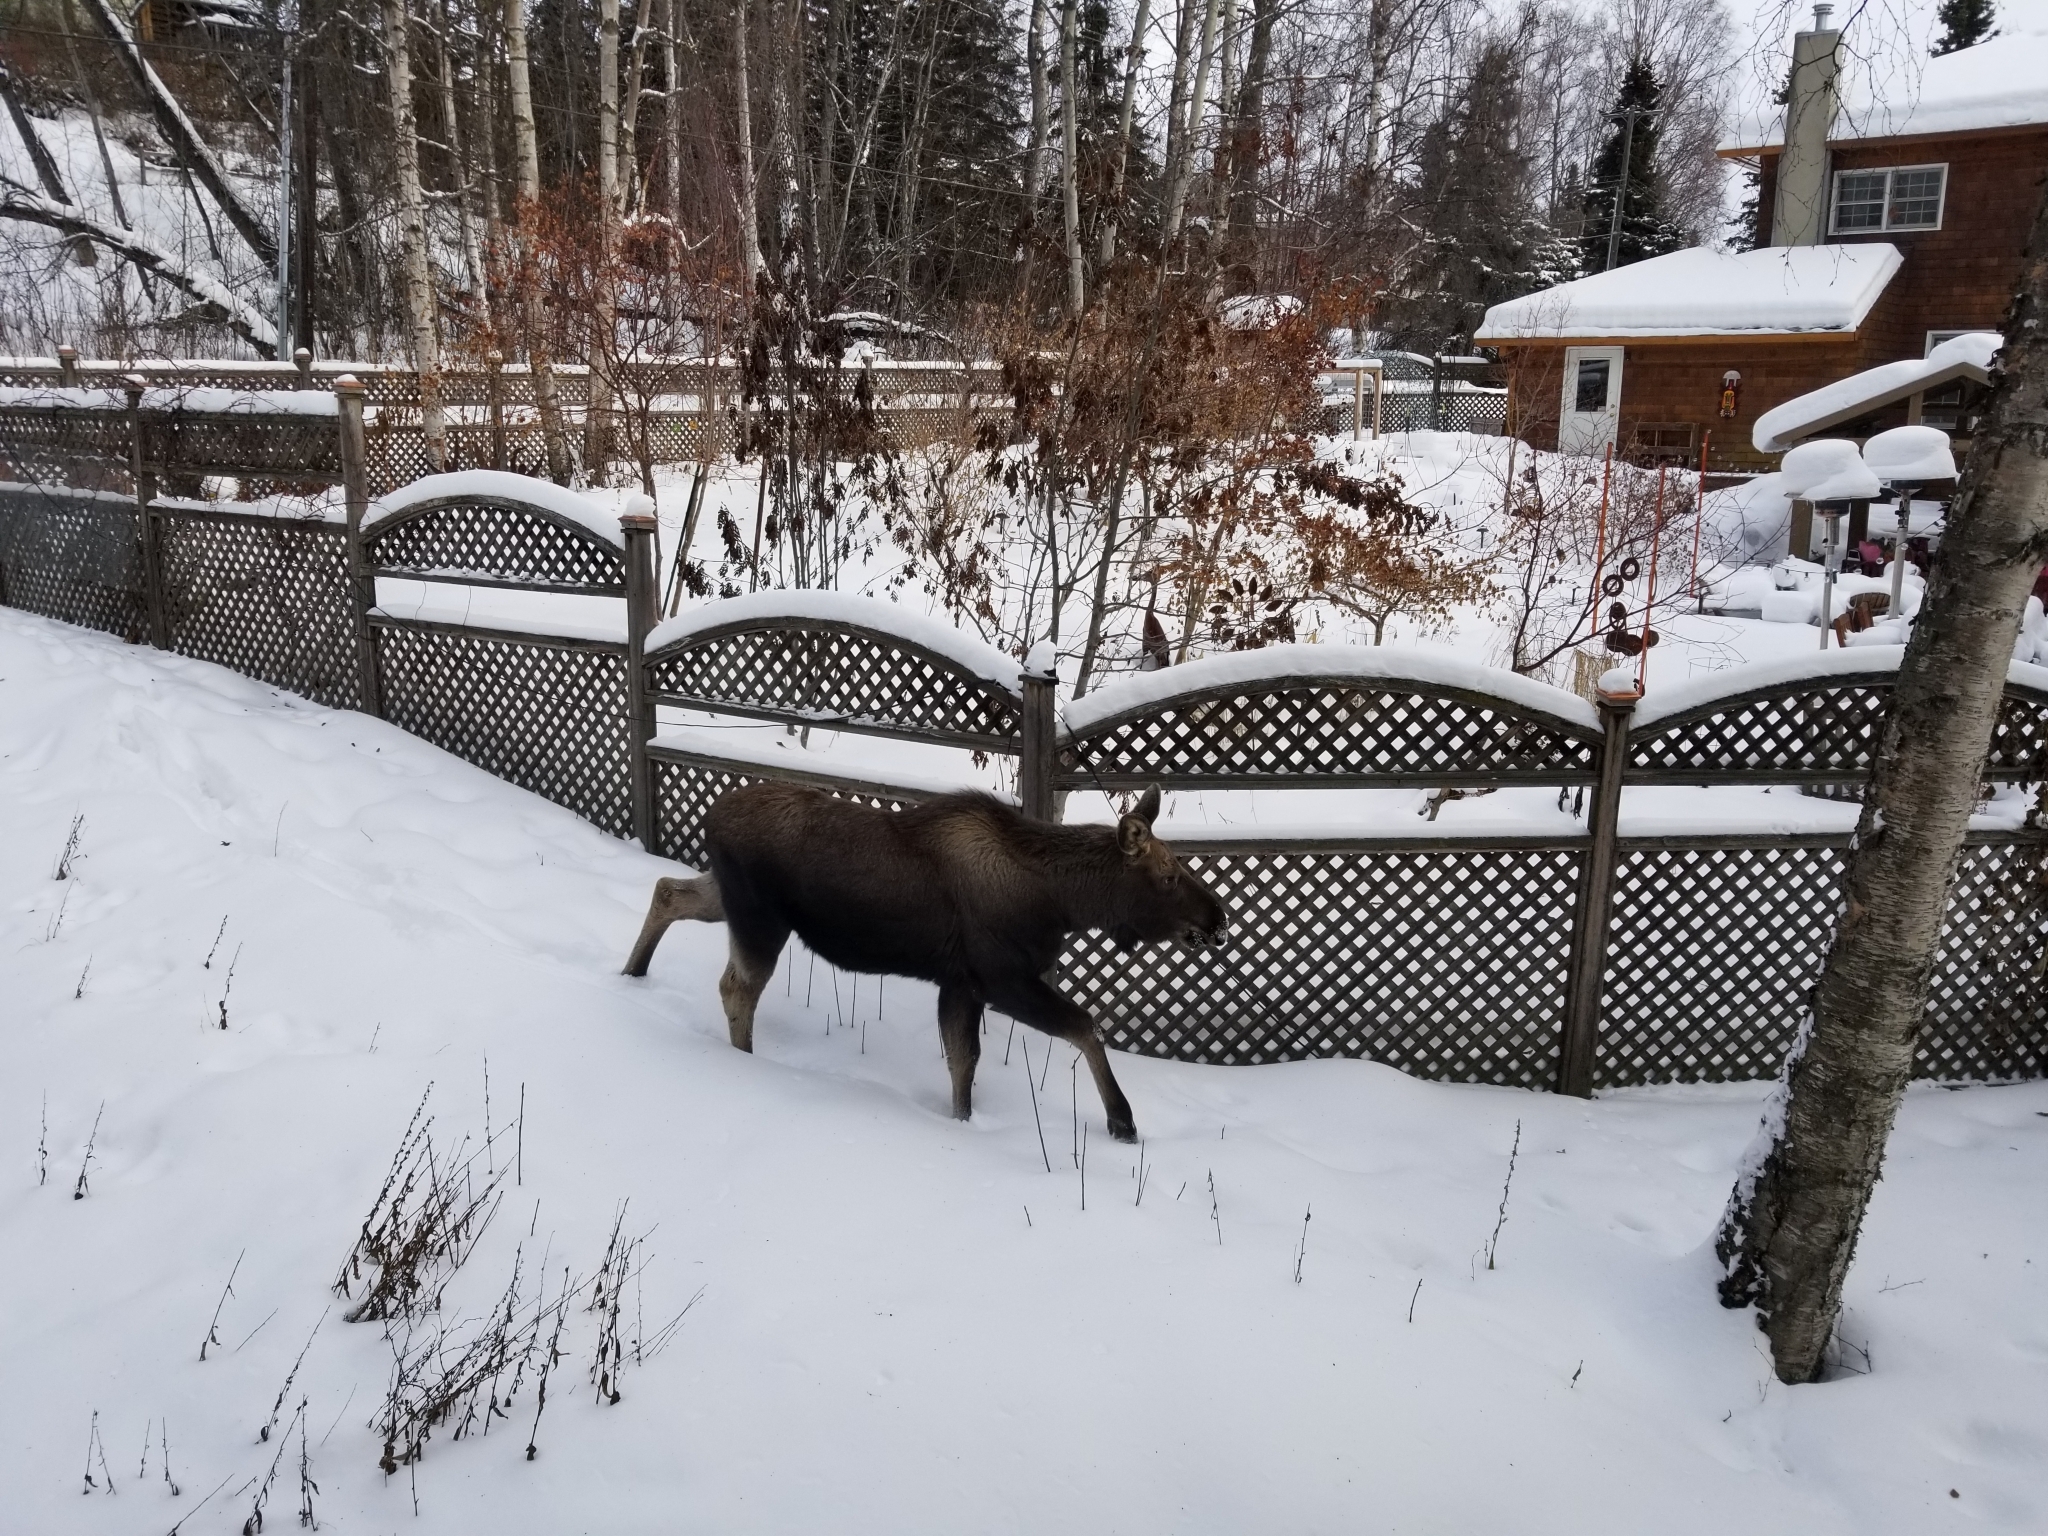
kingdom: Animalia
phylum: Chordata
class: Mammalia
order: Artiodactyla
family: Cervidae
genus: Alces
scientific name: Alces alces
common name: Moose
